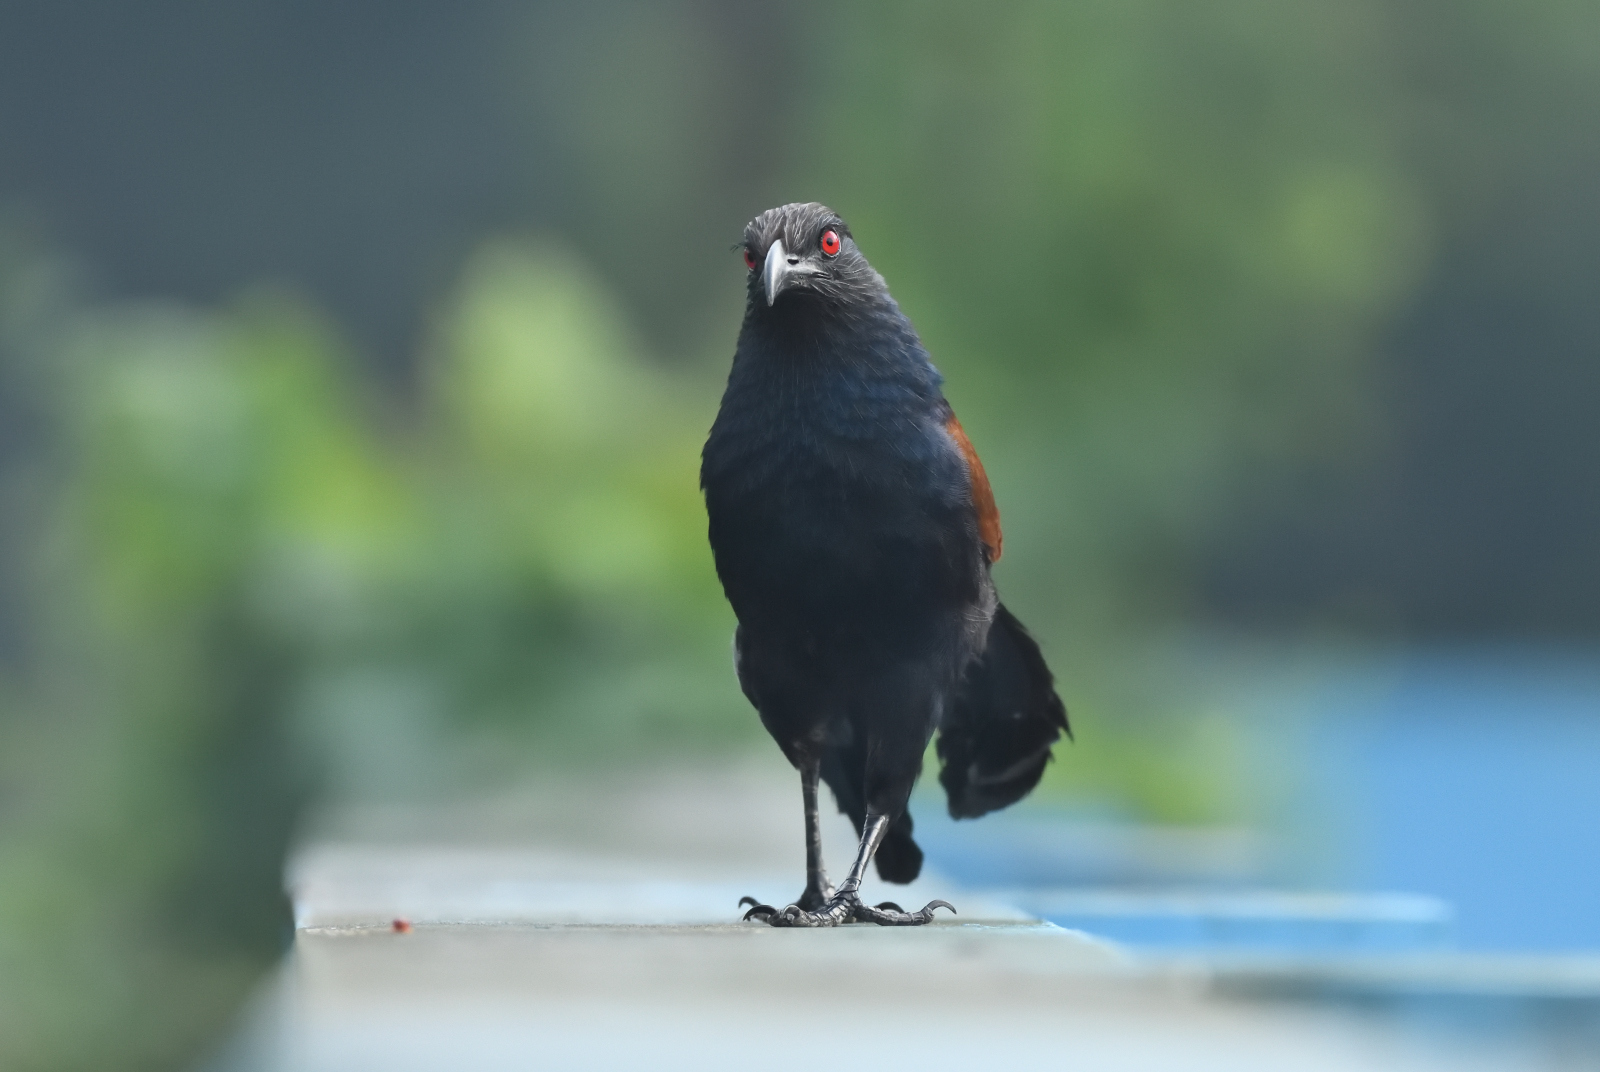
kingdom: Animalia
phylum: Chordata
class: Aves
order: Cuculiformes
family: Cuculidae
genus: Centropus
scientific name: Centropus sinensis
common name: Greater coucal
